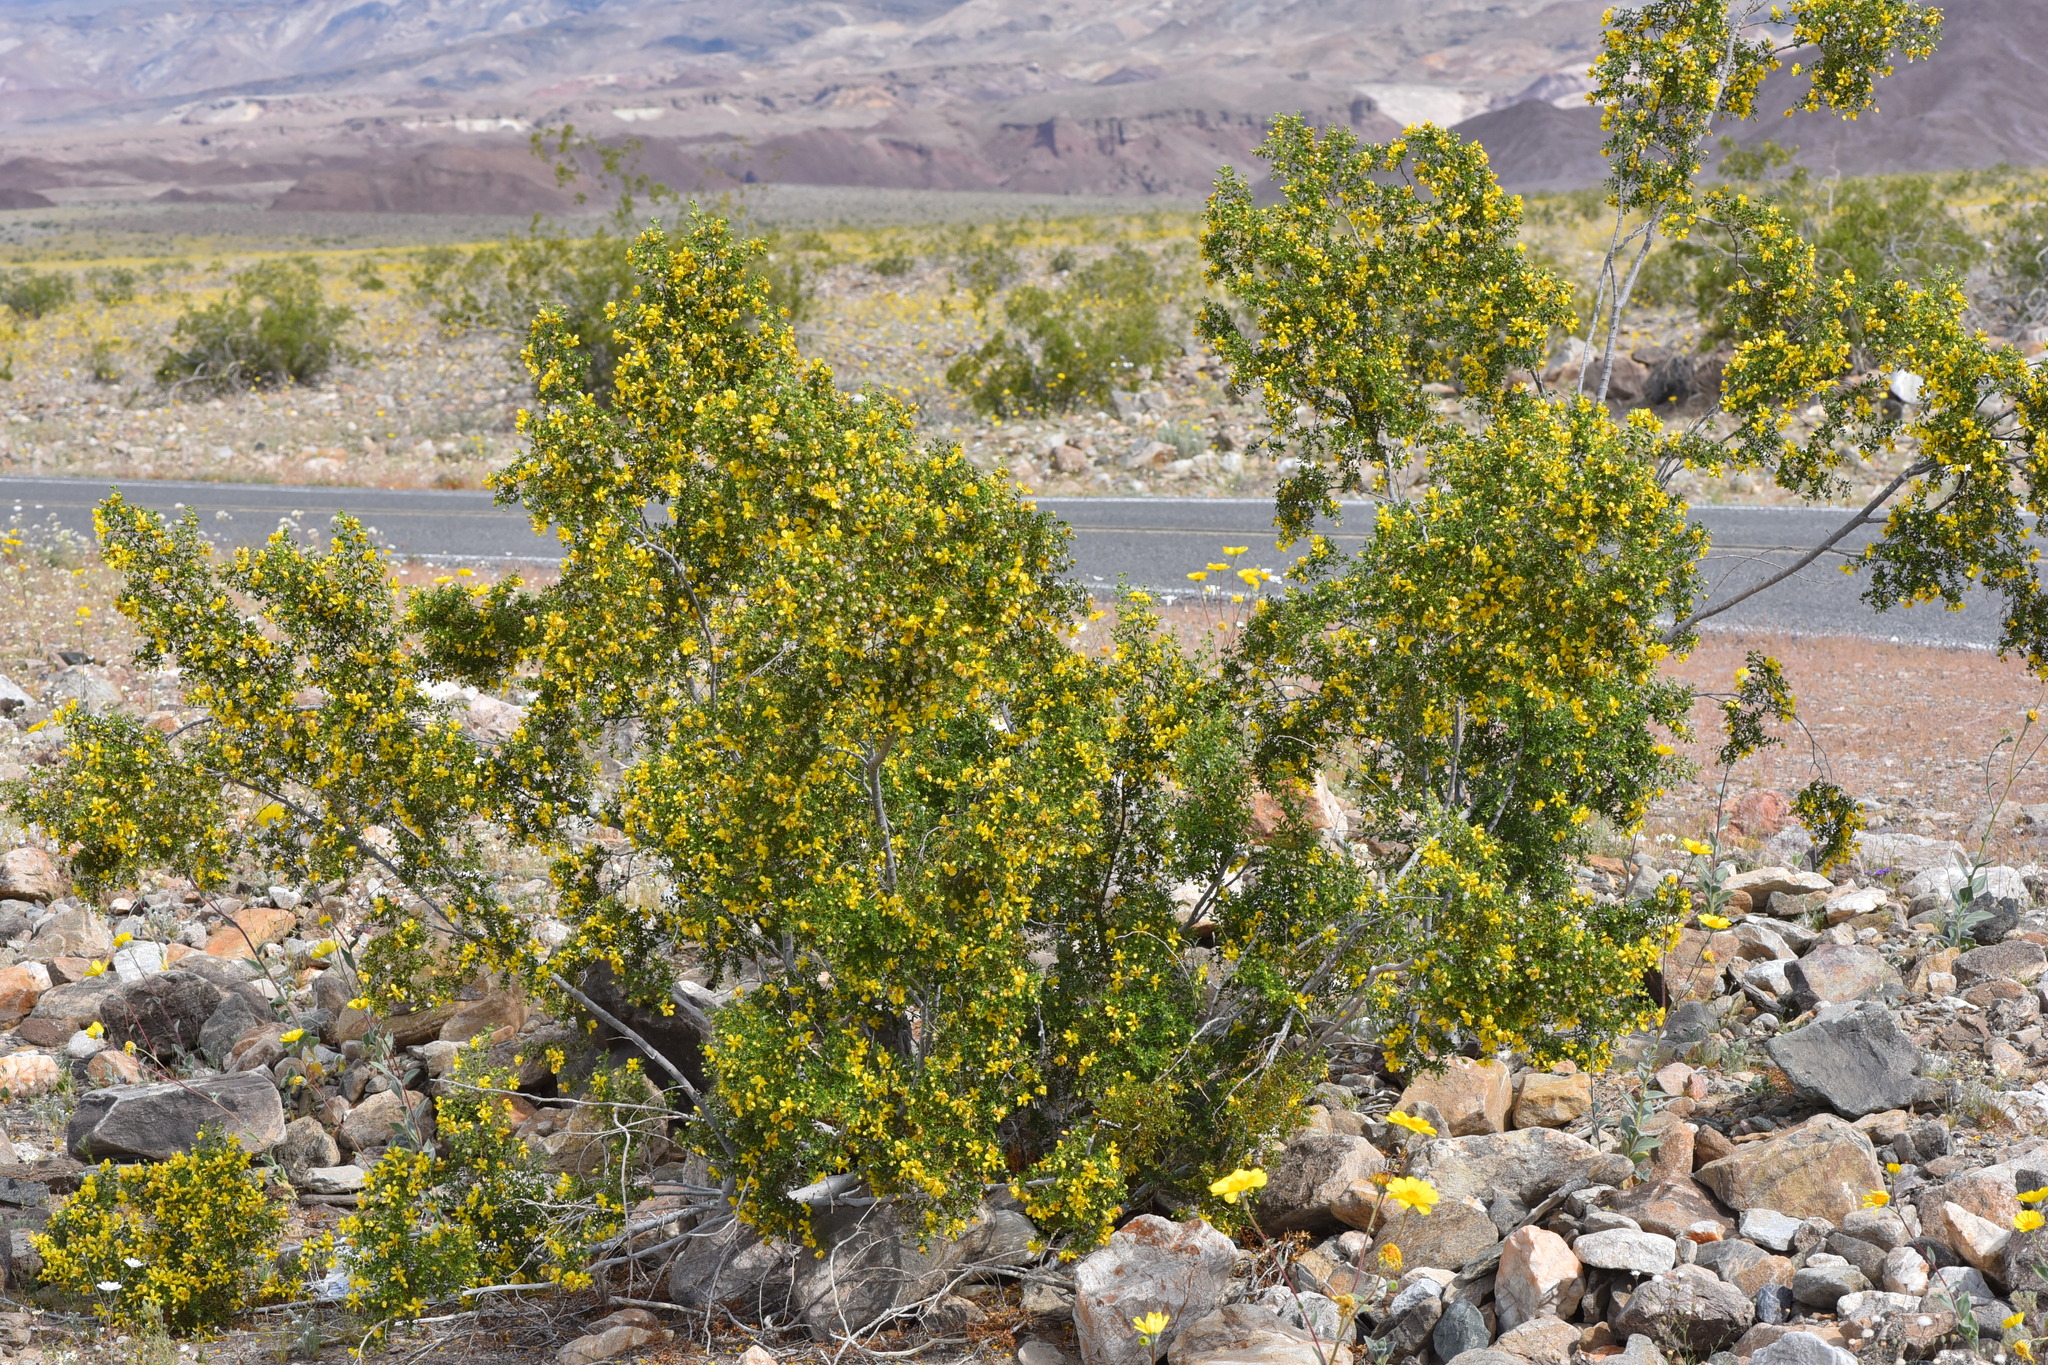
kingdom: Plantae
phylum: Tracheophyta
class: Magnoliopsida
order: Zygophyllales
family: Zygophyllaceae
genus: Larrea
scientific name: Larrea tridentata
